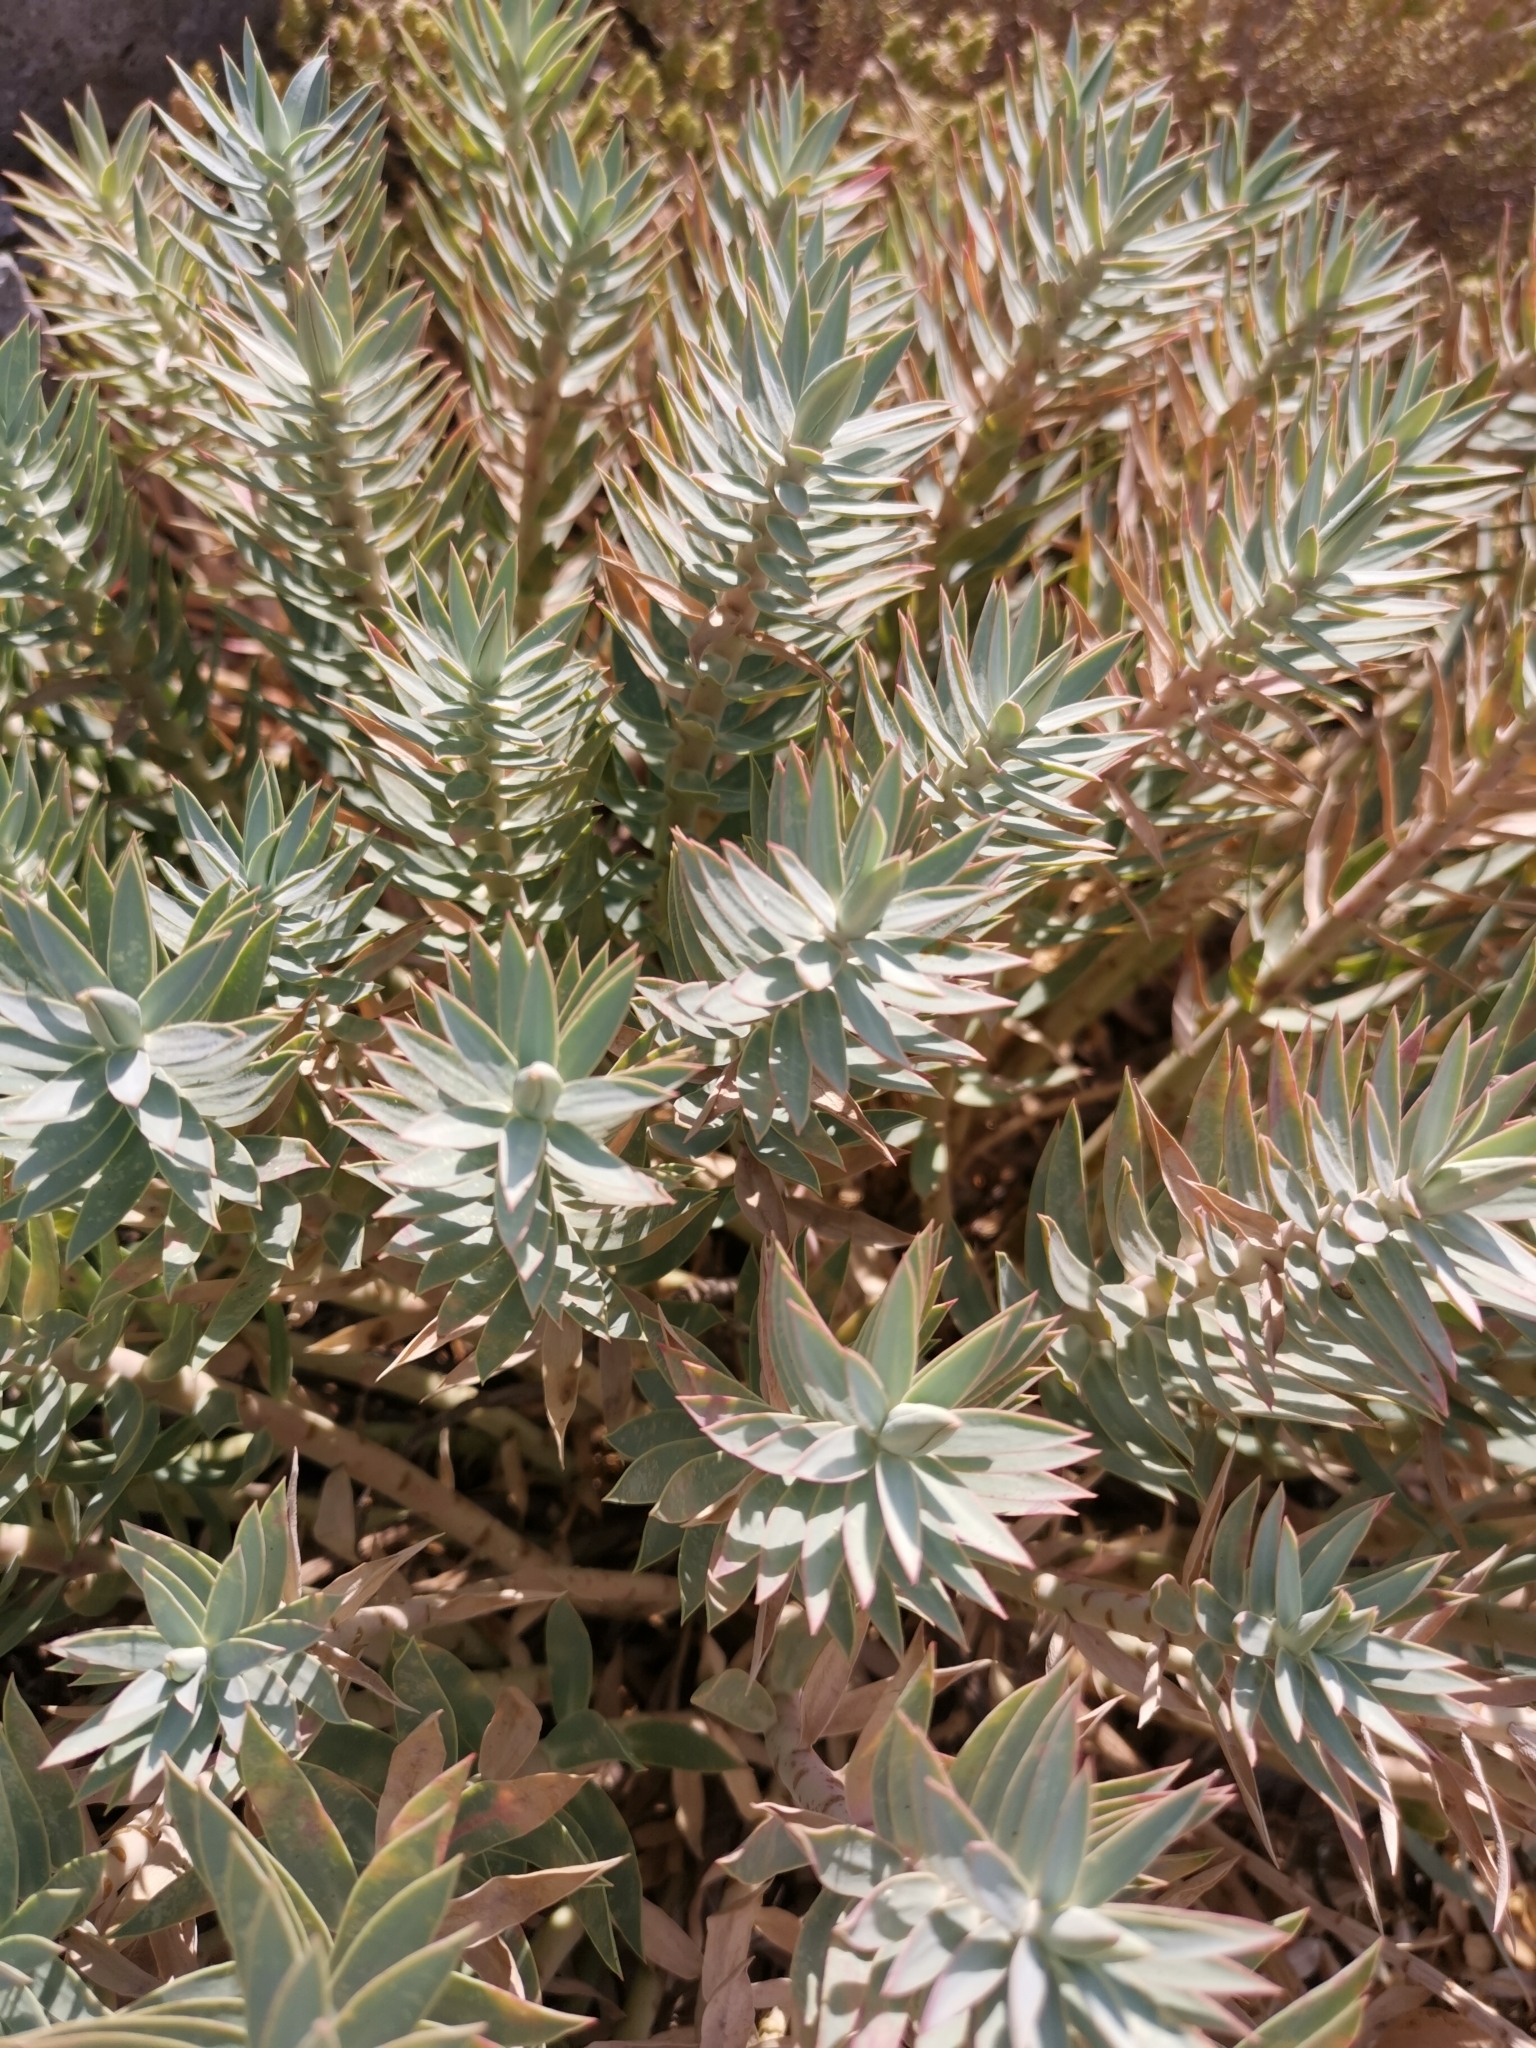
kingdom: Plantae
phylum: Tracheophyta
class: Magnoliopsida
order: Malpighiales
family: Euphorbiaceae
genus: Euphorbia
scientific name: Euphorbia rigida
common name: Upright myrtle spurge
